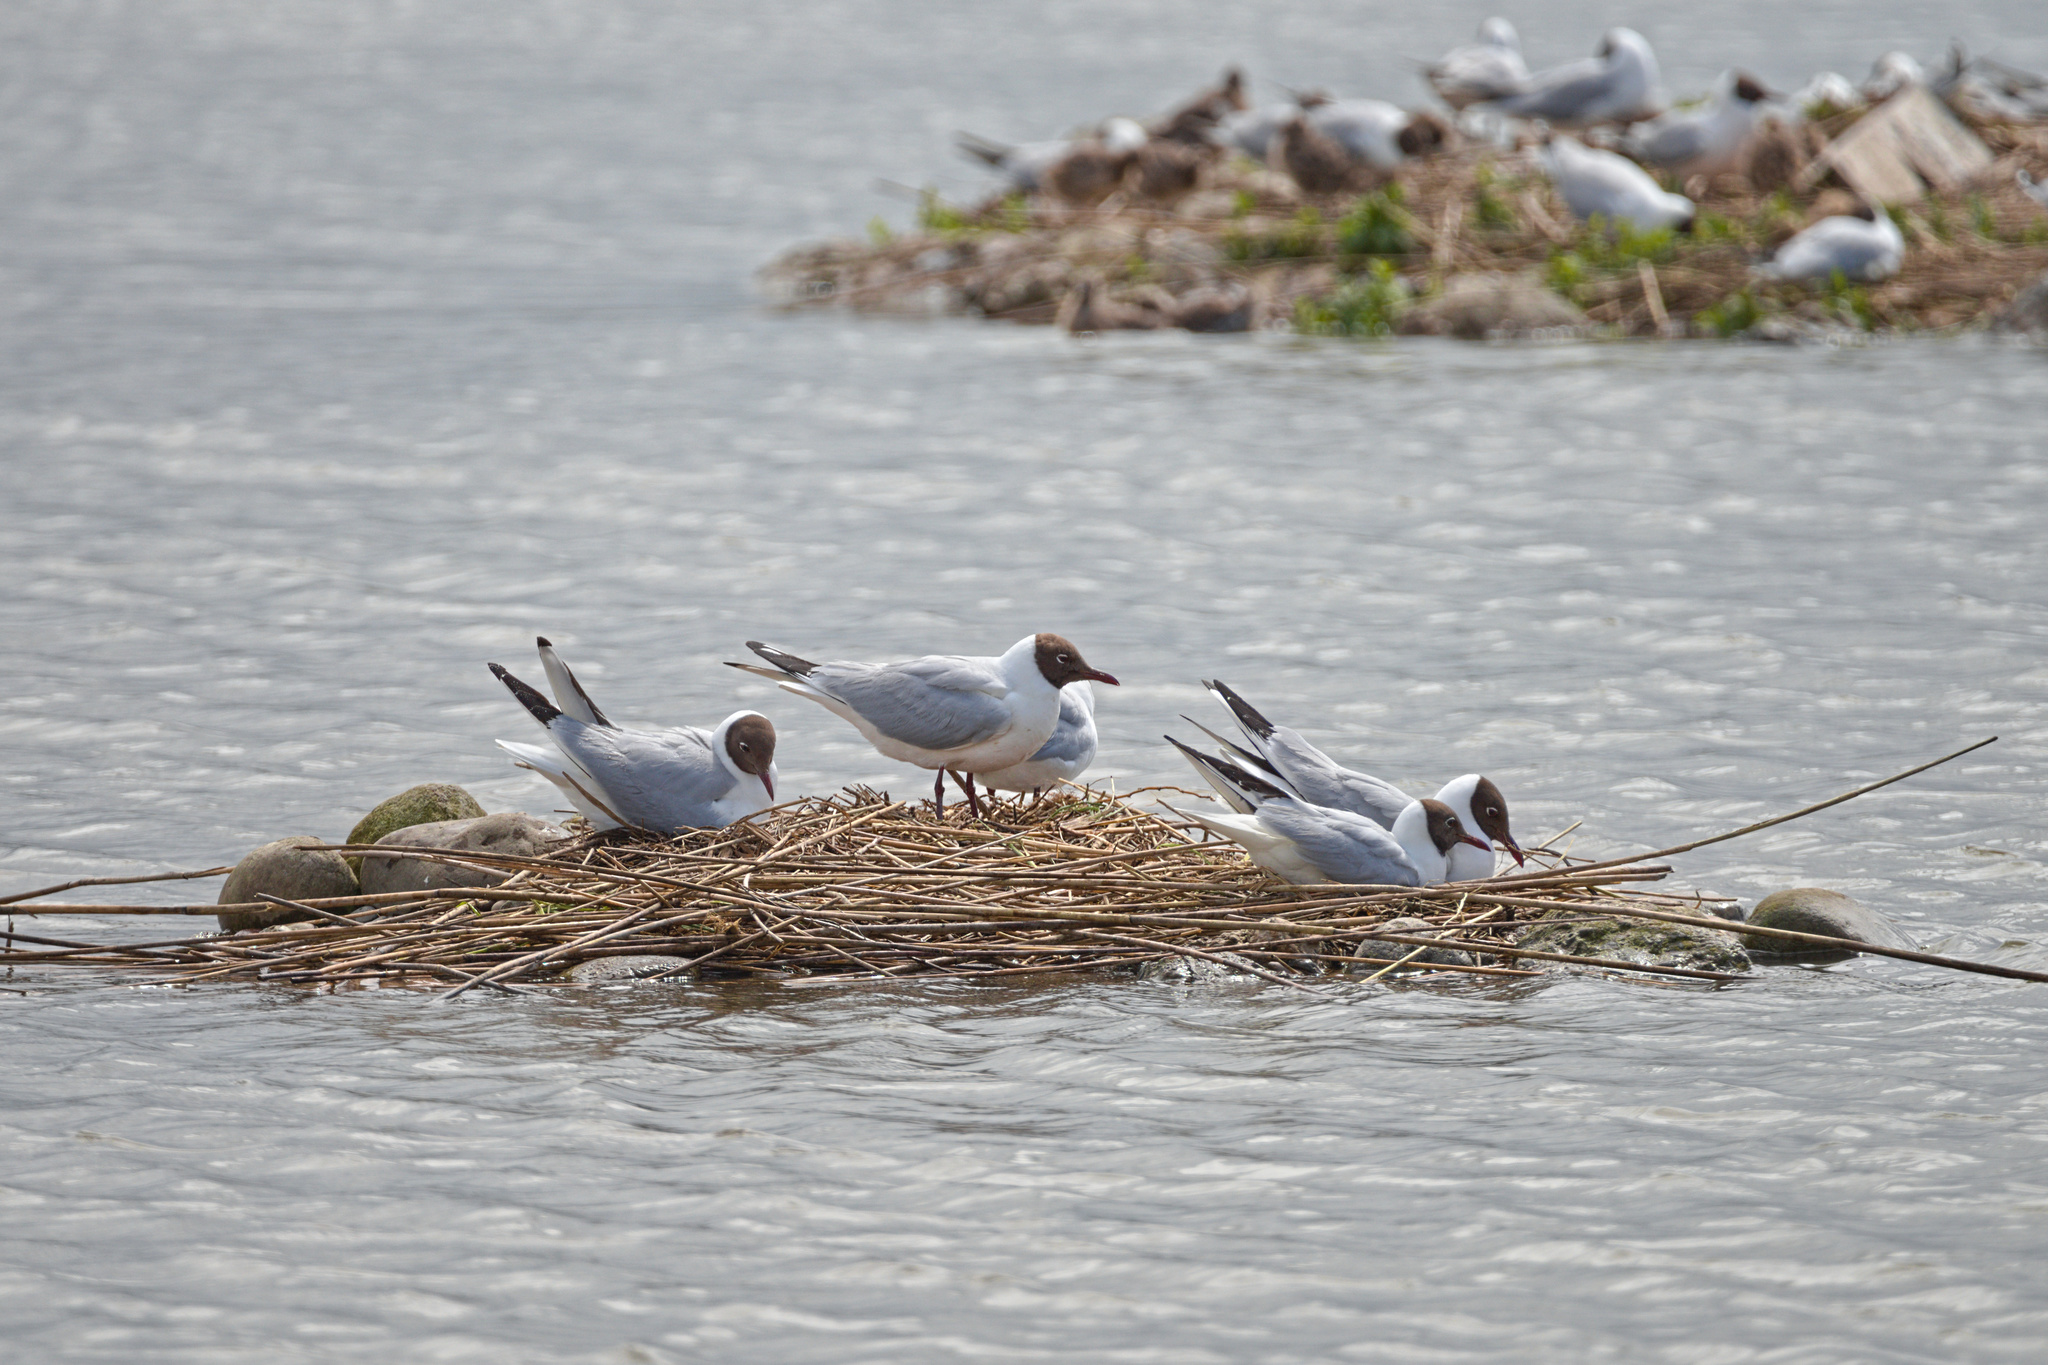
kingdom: Animalia
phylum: Chordata
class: Aves
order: Charadriiformes
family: Laridae
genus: Chroicocephalus
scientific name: Chroicocephalus ridibundus
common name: Black-headed gull
